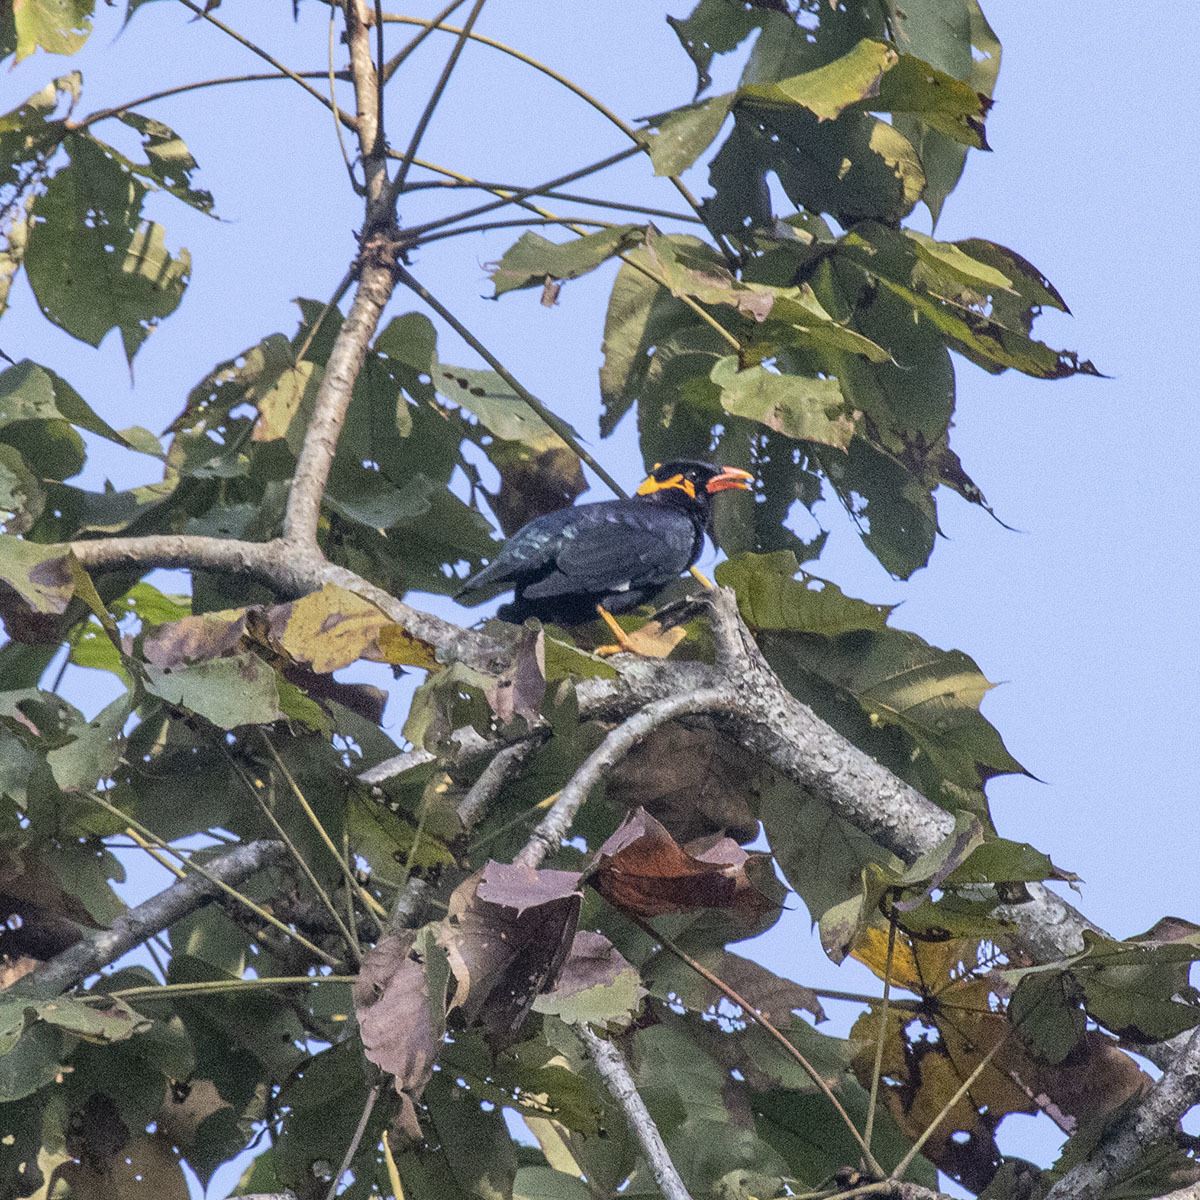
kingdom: Animalia
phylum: Chordata
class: Aves
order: Passeriformes
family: Sturnidae
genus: Gracula
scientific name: Gracula religiosa
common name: Common hill myna
